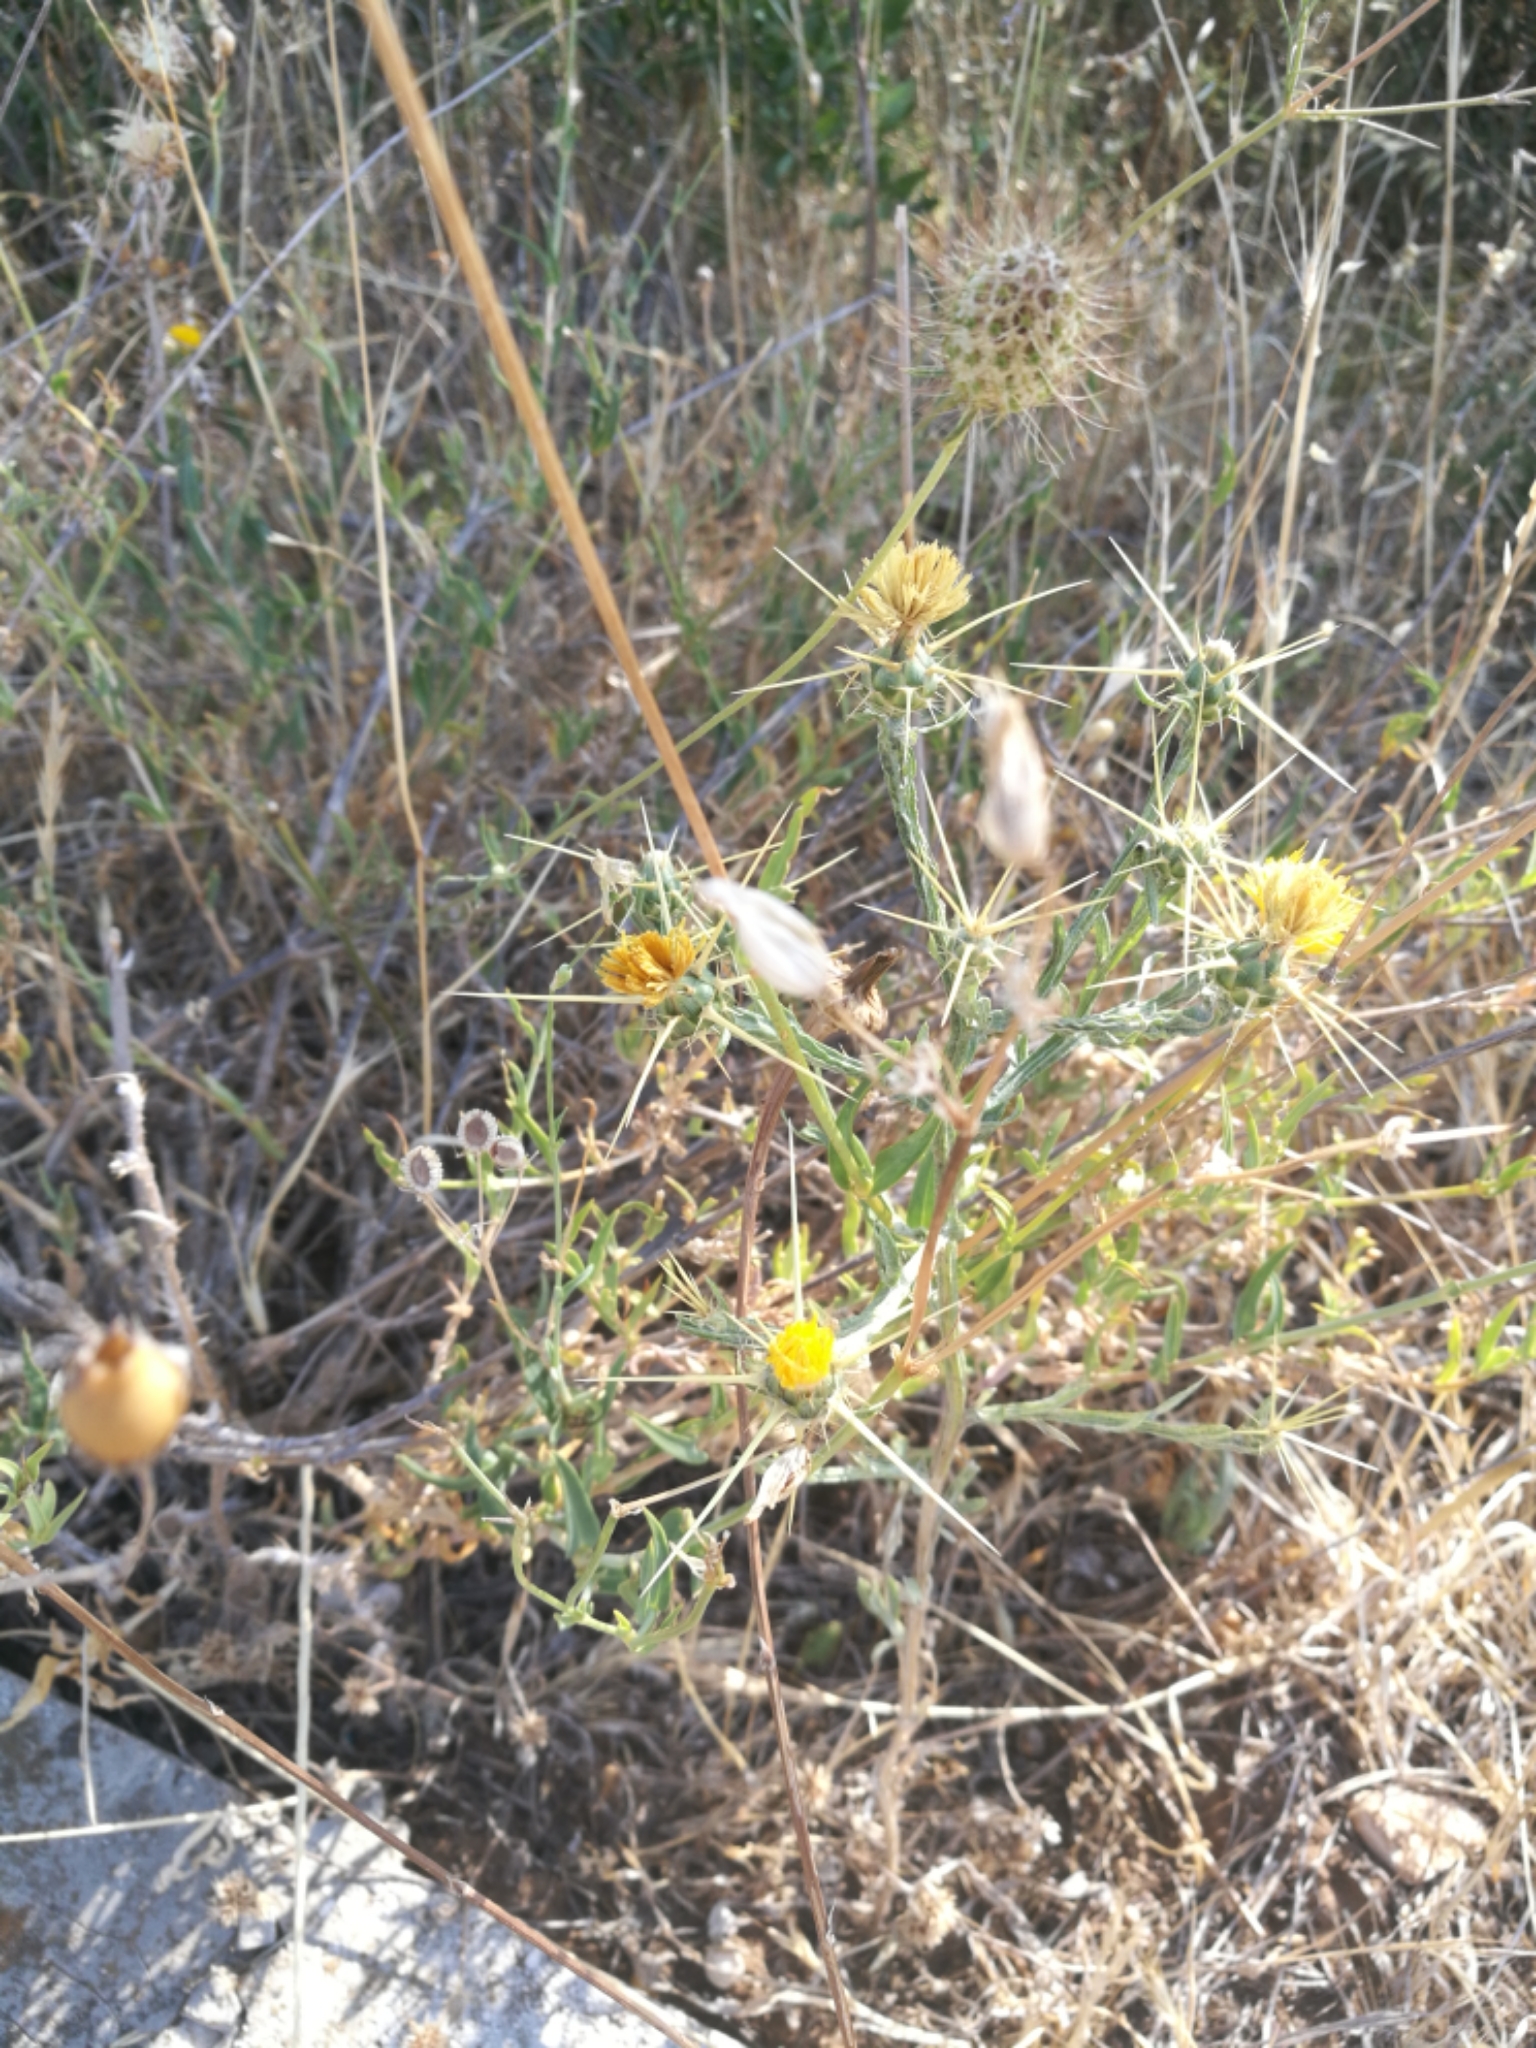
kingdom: Plantae
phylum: Tracheophyta
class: Magnoliopsida
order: Asterales
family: Asteraceae
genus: Centaurea
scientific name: Centaurea solstitialis
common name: Yellow star-thistle
